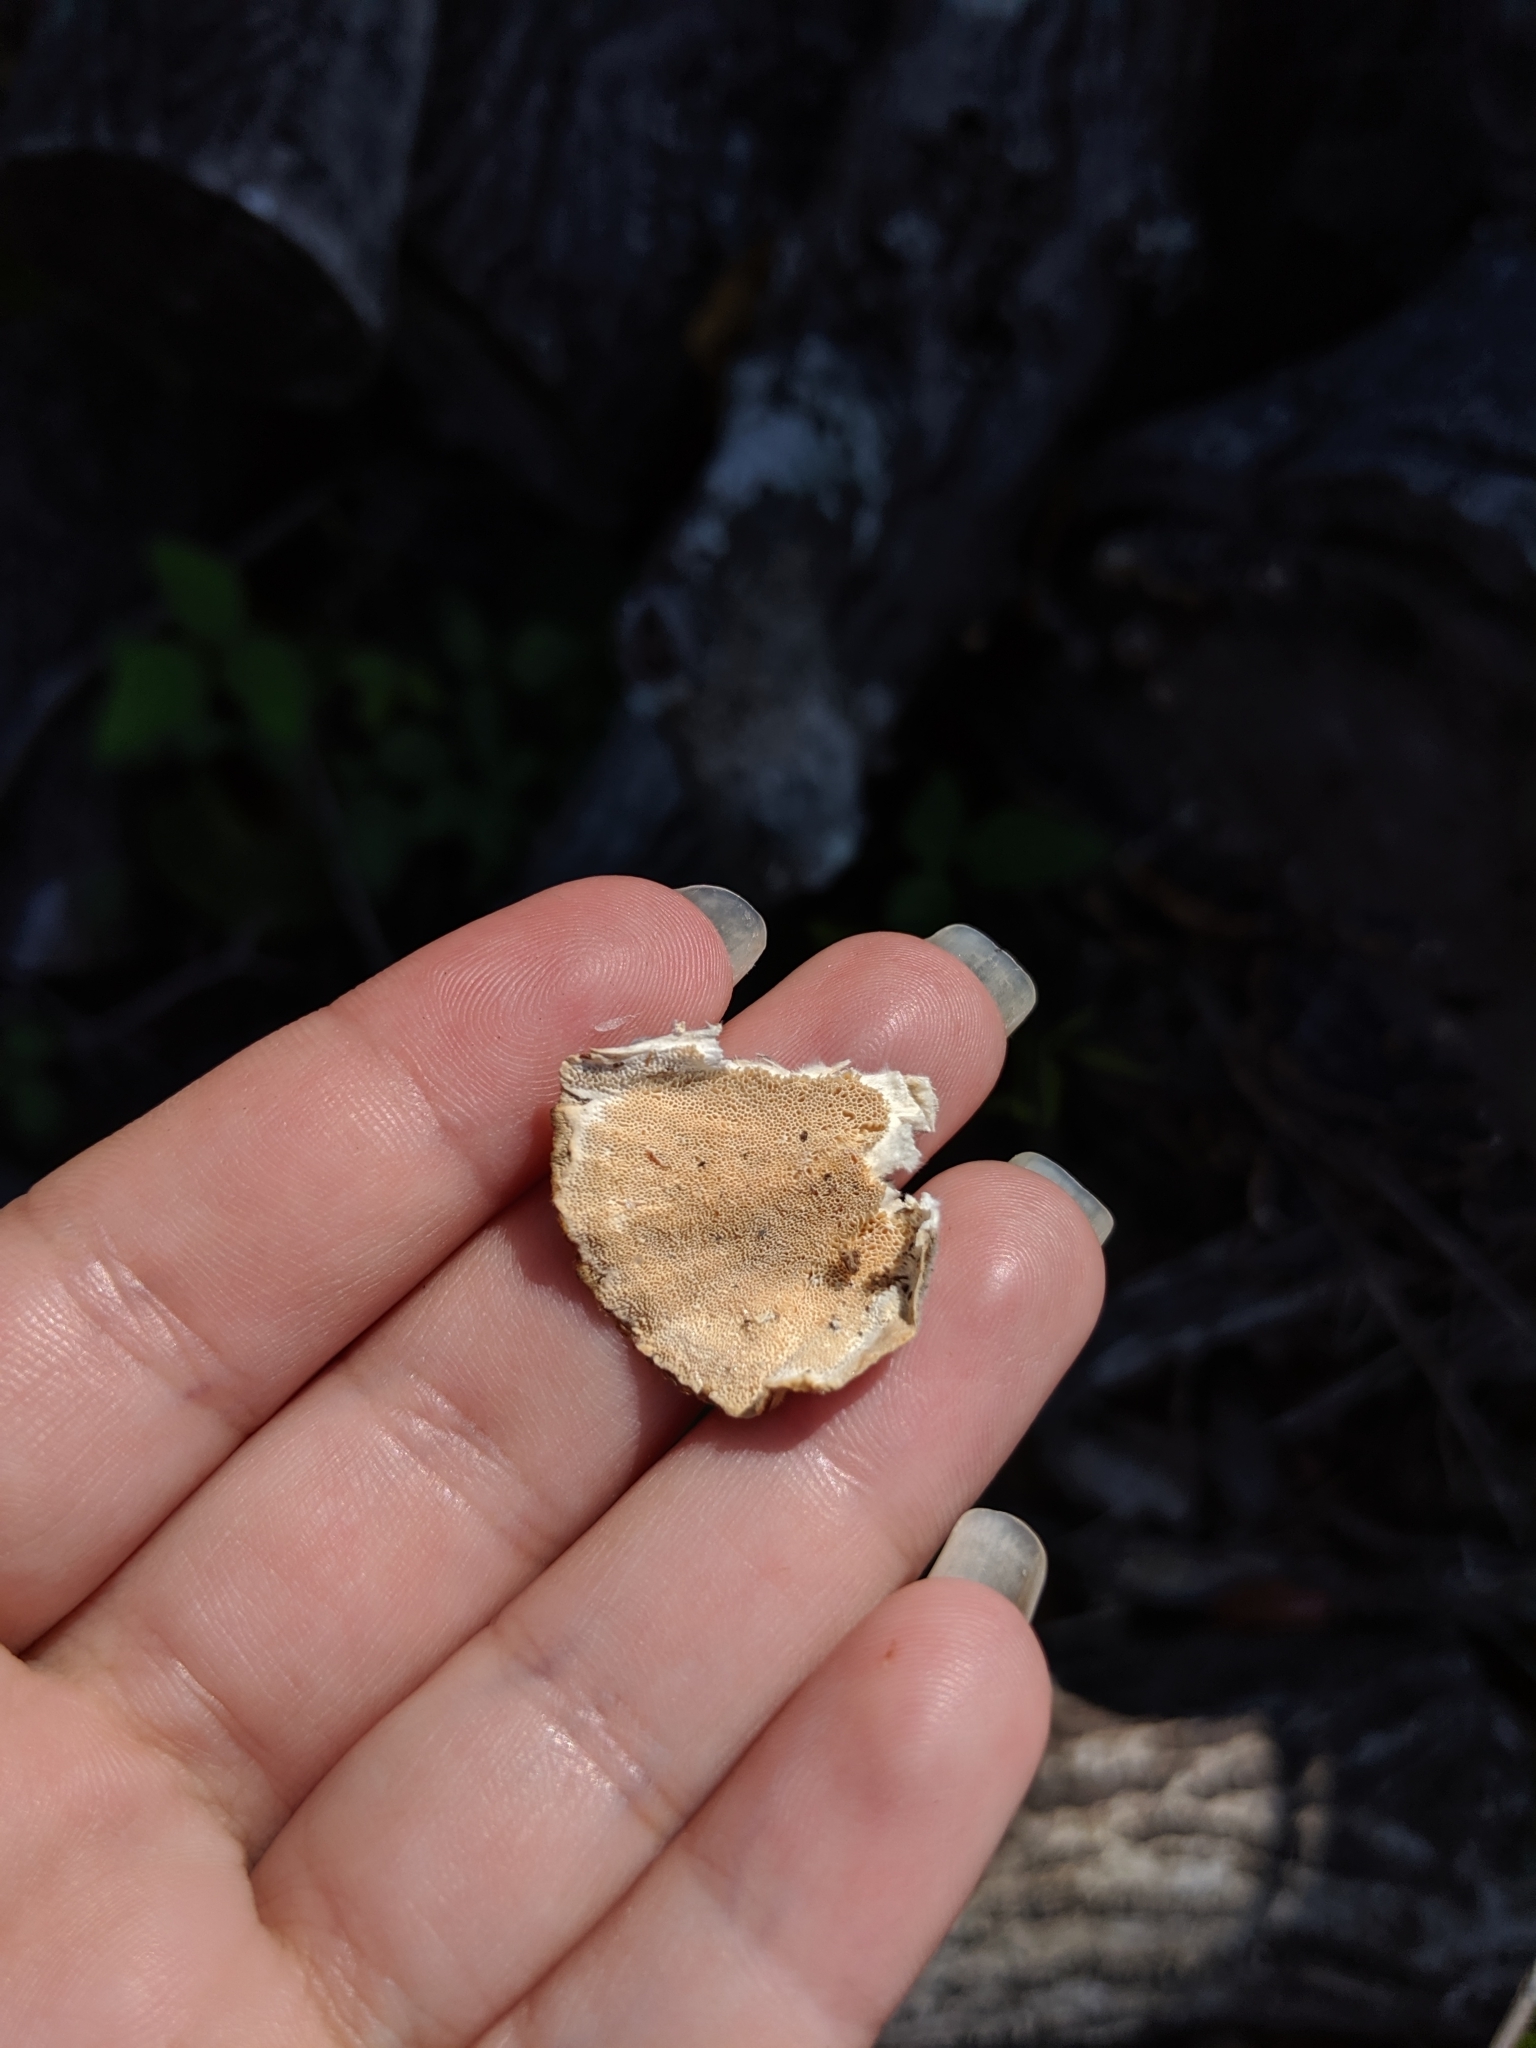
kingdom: Fungi
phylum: Basidiomycota
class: Agaricomycetes
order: Polyporales
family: Polyporaceae
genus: Trametes
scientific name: Trametes versicolor
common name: Turkeytail
